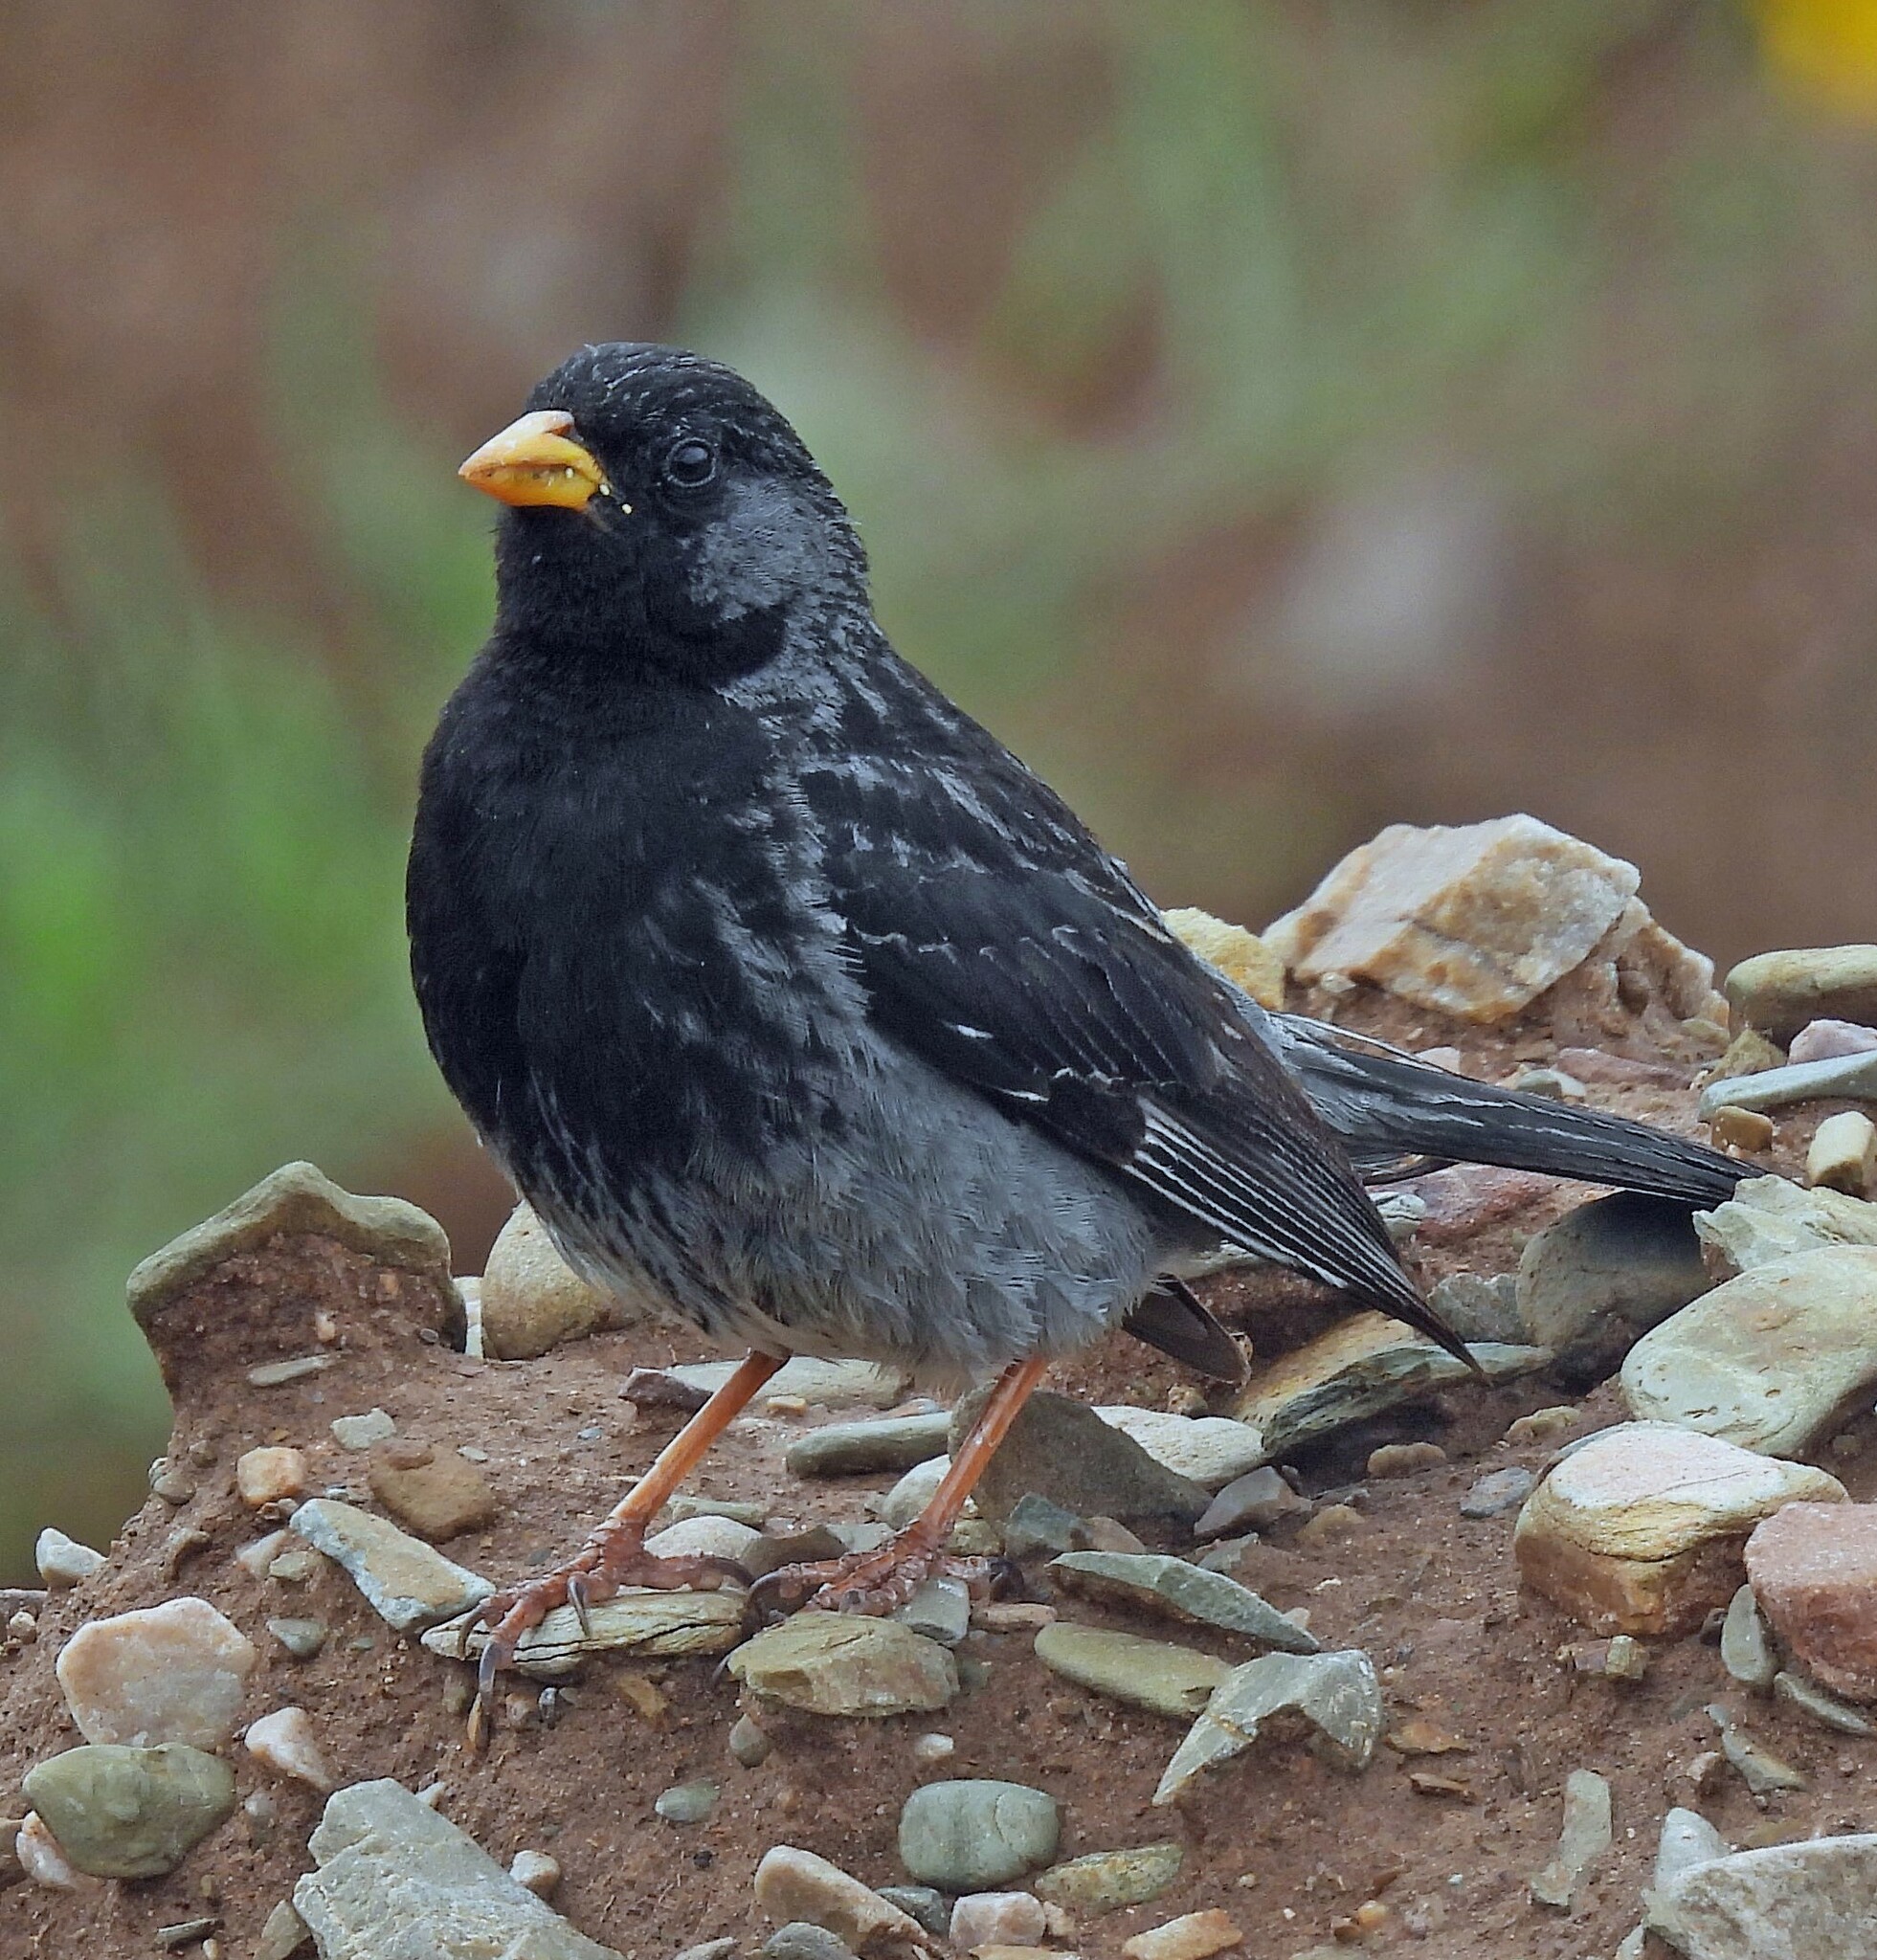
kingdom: Animalia
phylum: Chordata
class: Aves
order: Passeriformes
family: Thraupidae
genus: Rhopospina
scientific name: Rhopospina fruticeti
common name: Mourning sierra finch
